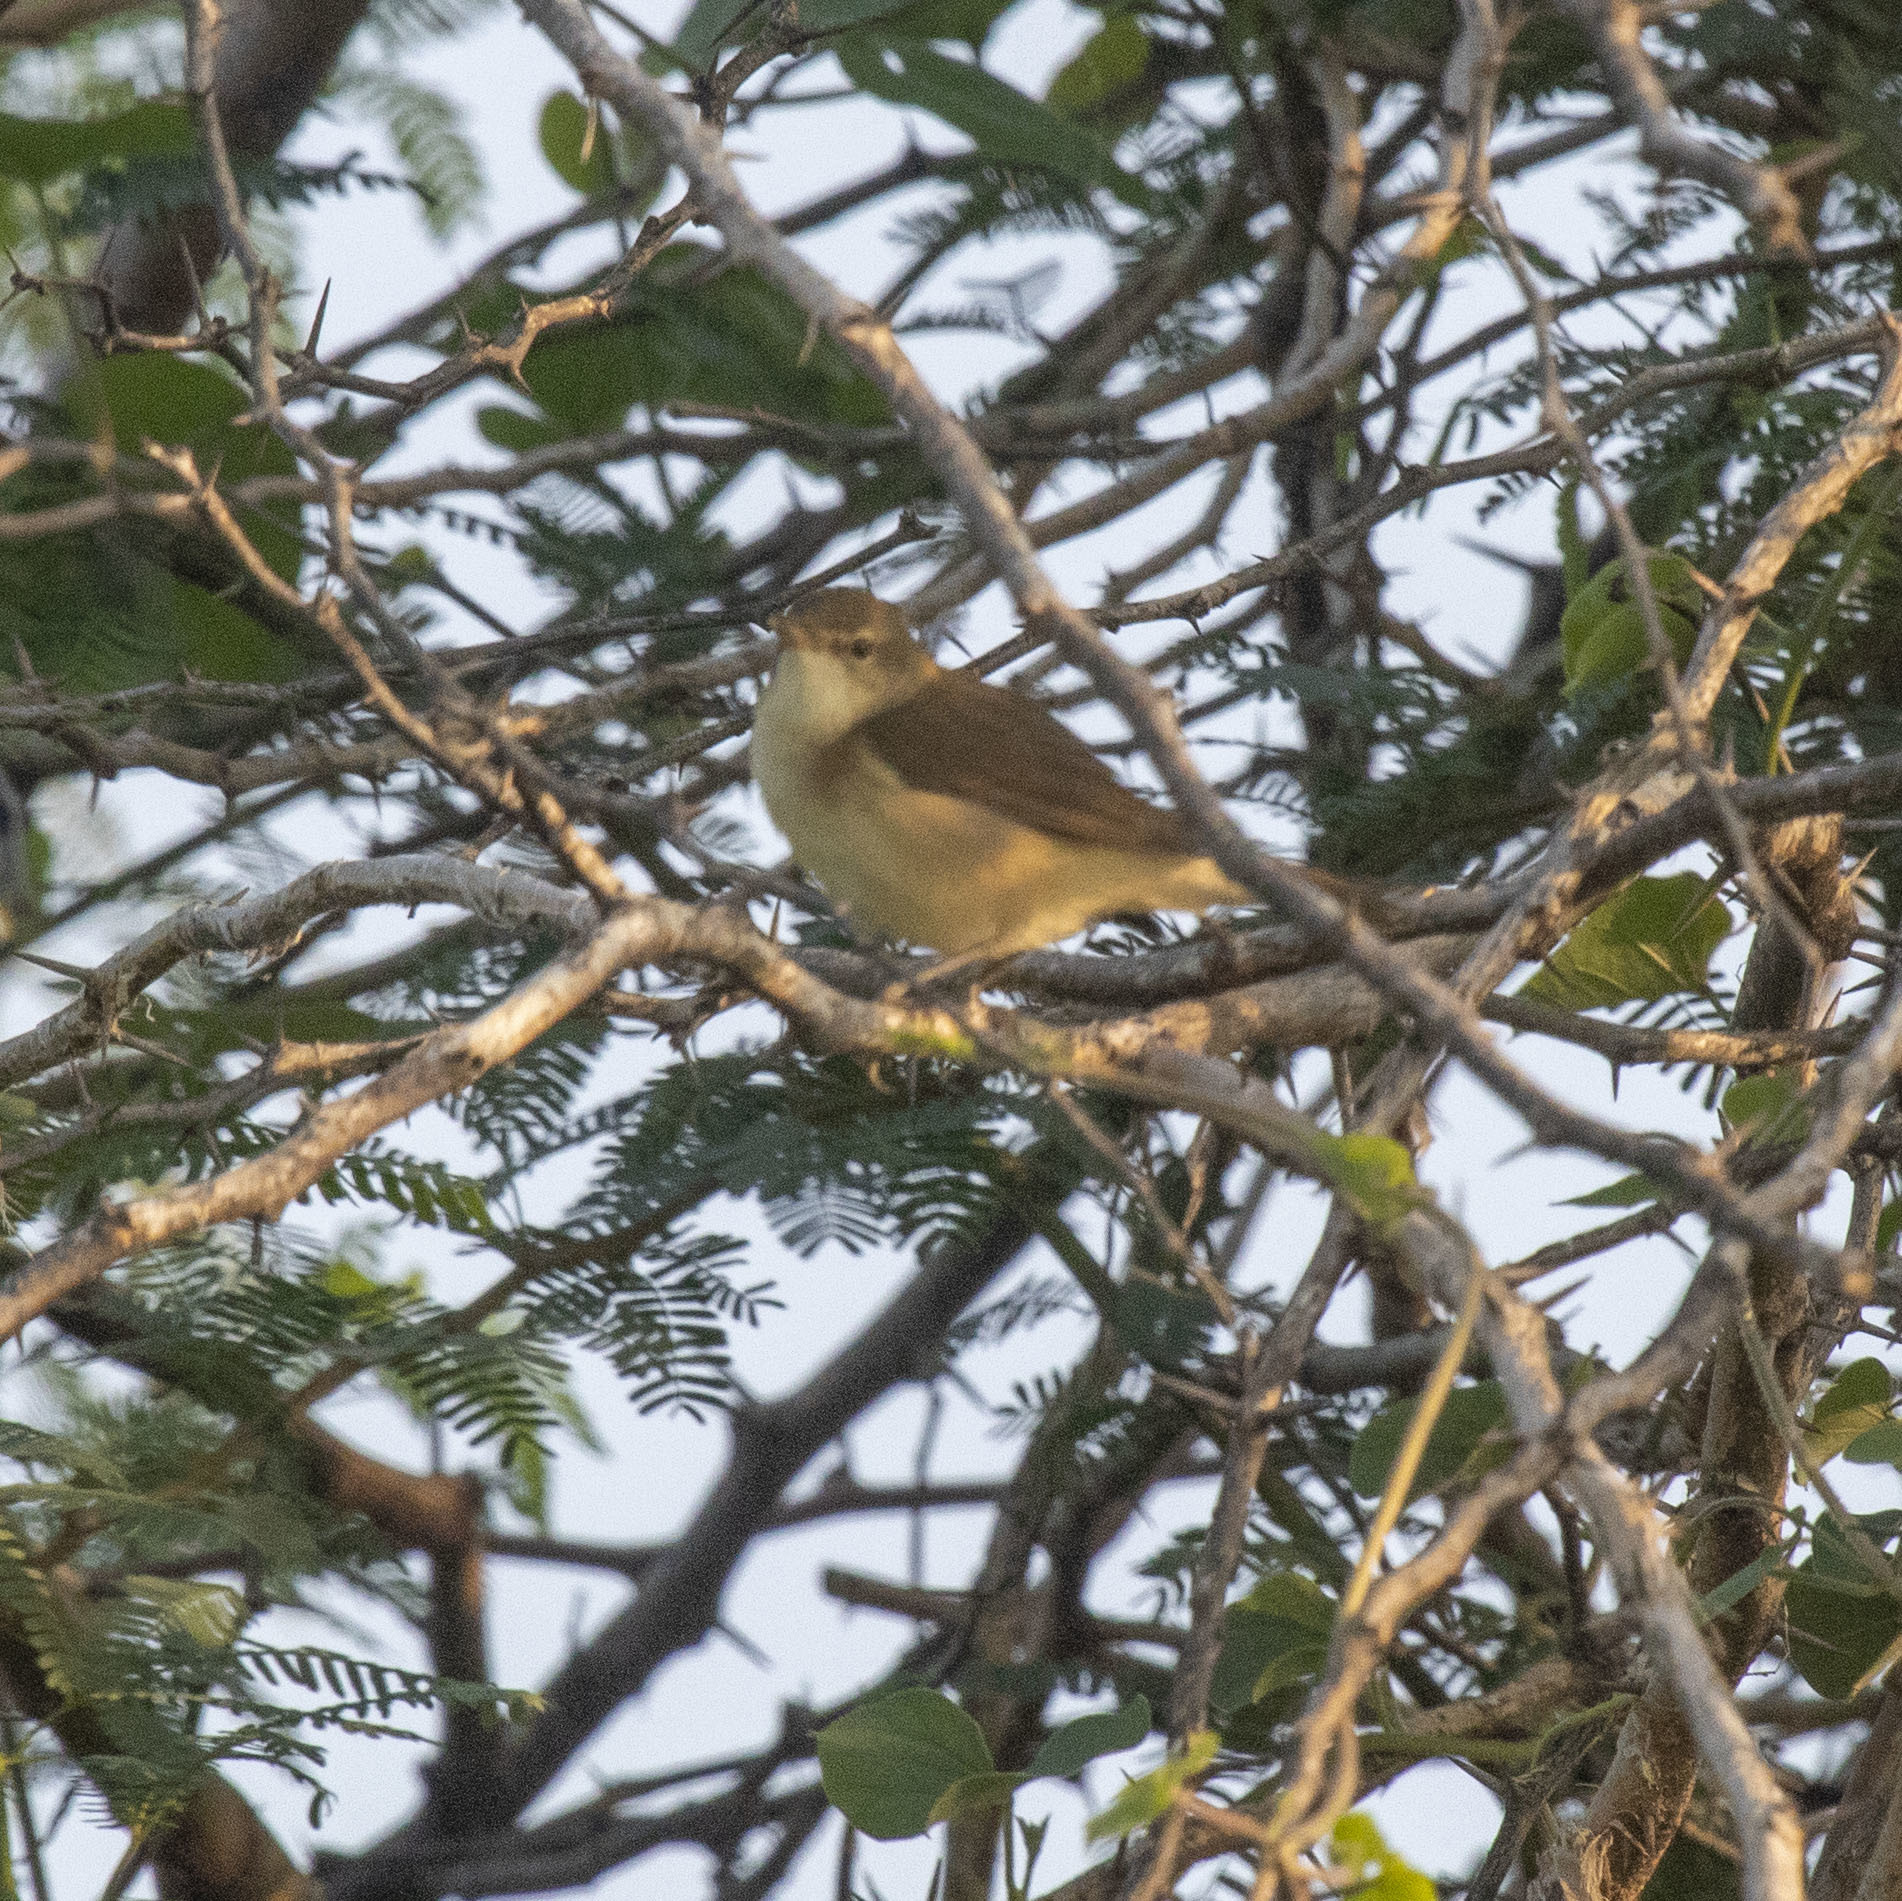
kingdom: Animalia
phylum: Chordata
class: Aves
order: Passeriformes
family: Acrocephalidae
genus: Acrocephalus
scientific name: Acrocephalus dumetorum
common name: Blyth's reed warbler
